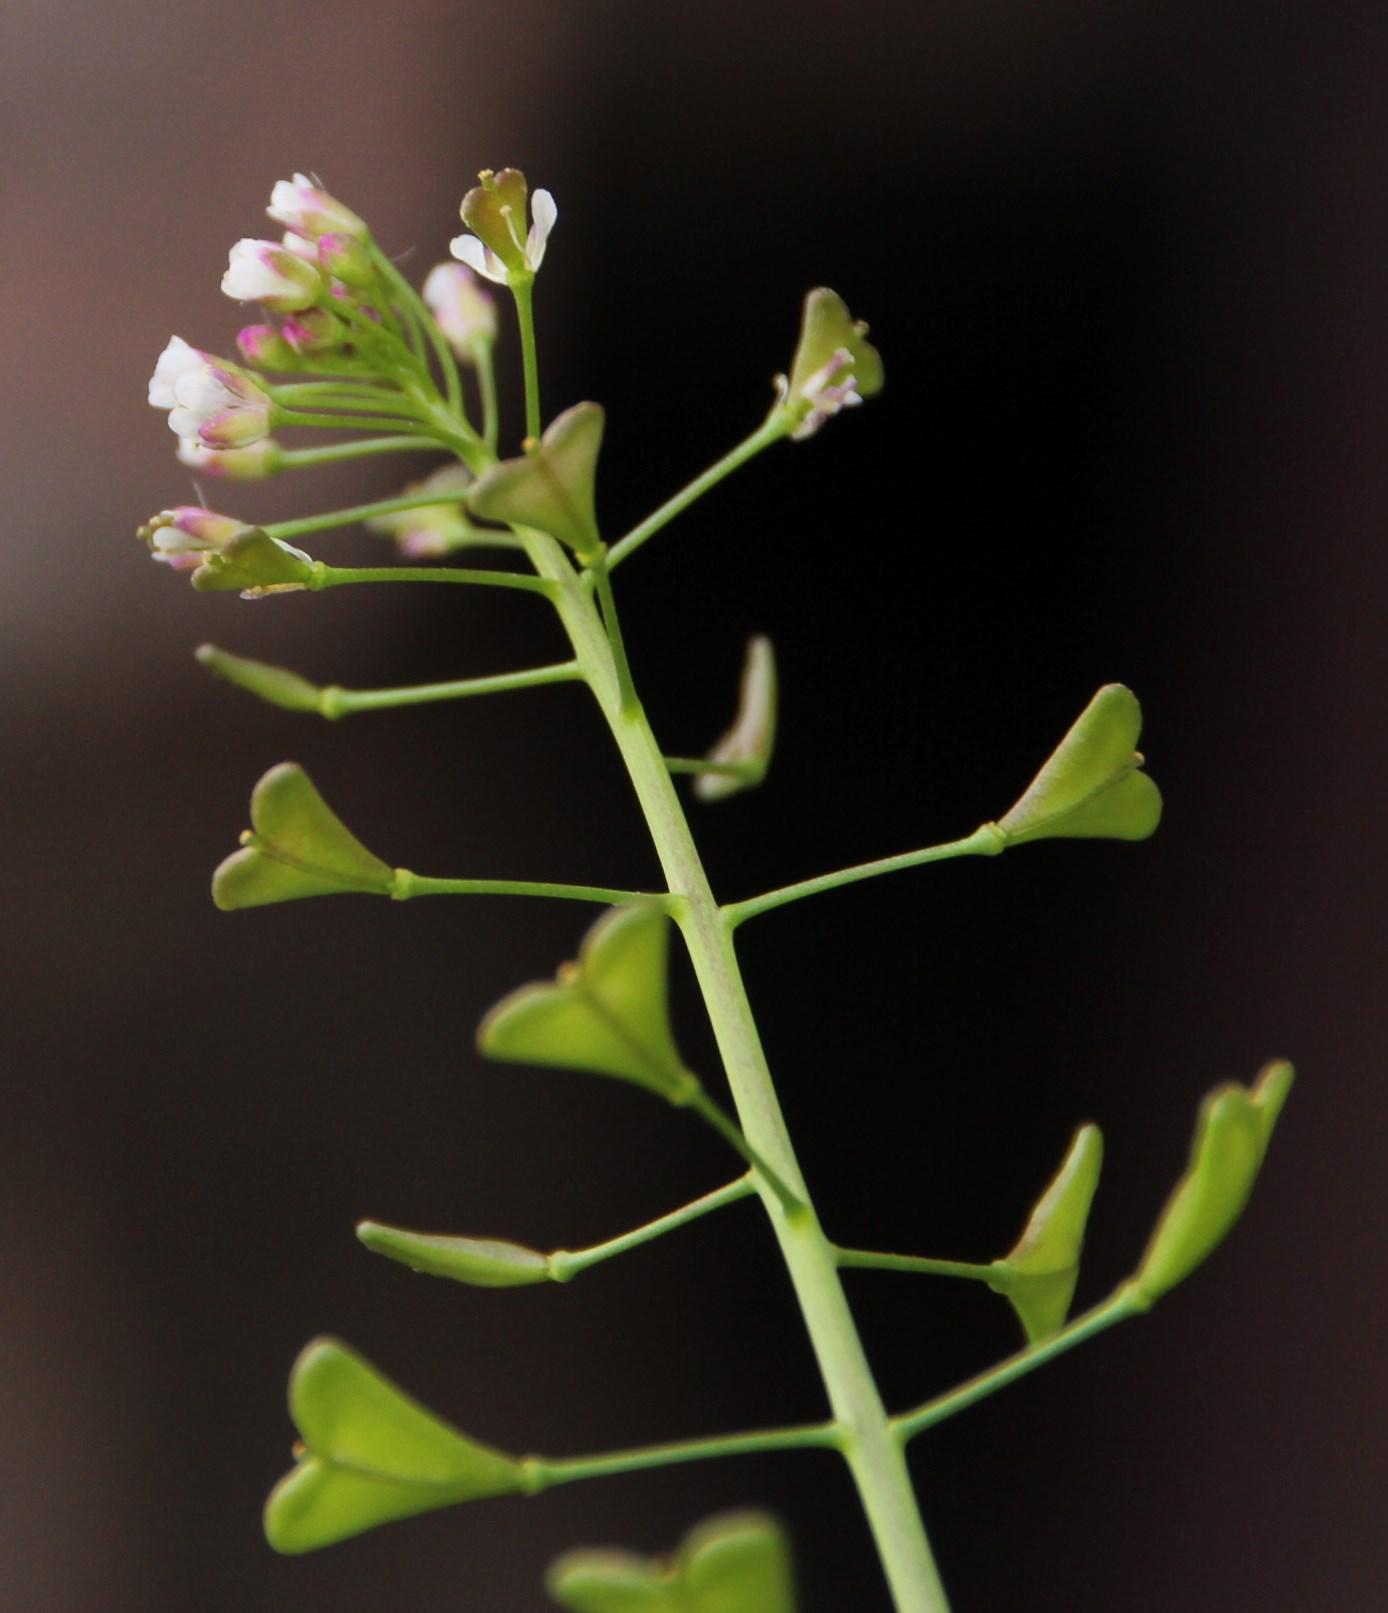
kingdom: Plantae
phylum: Tracheophyta
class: Magnoliopsida
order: Brassicales
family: Brassicaceae
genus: Capsella
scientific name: Capsella bursa-pastoris
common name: Shepherd's purse
